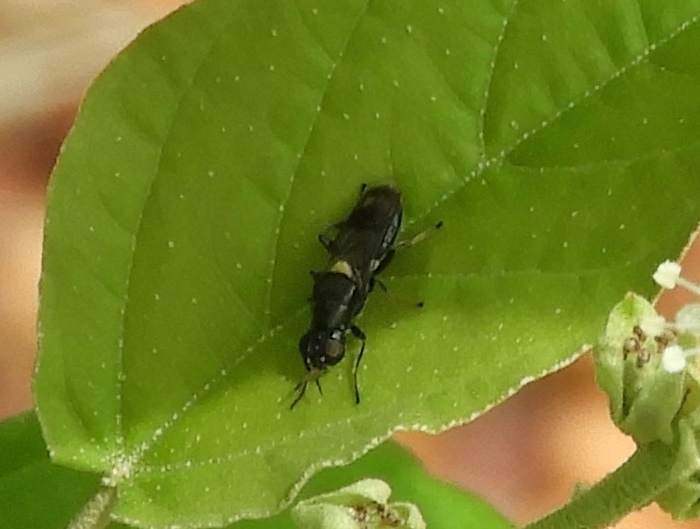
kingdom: Animalia
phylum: Arthropoda
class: Insecta
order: Diptera
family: Stratiomyidae
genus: Myxosargus
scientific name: Myxosargus
